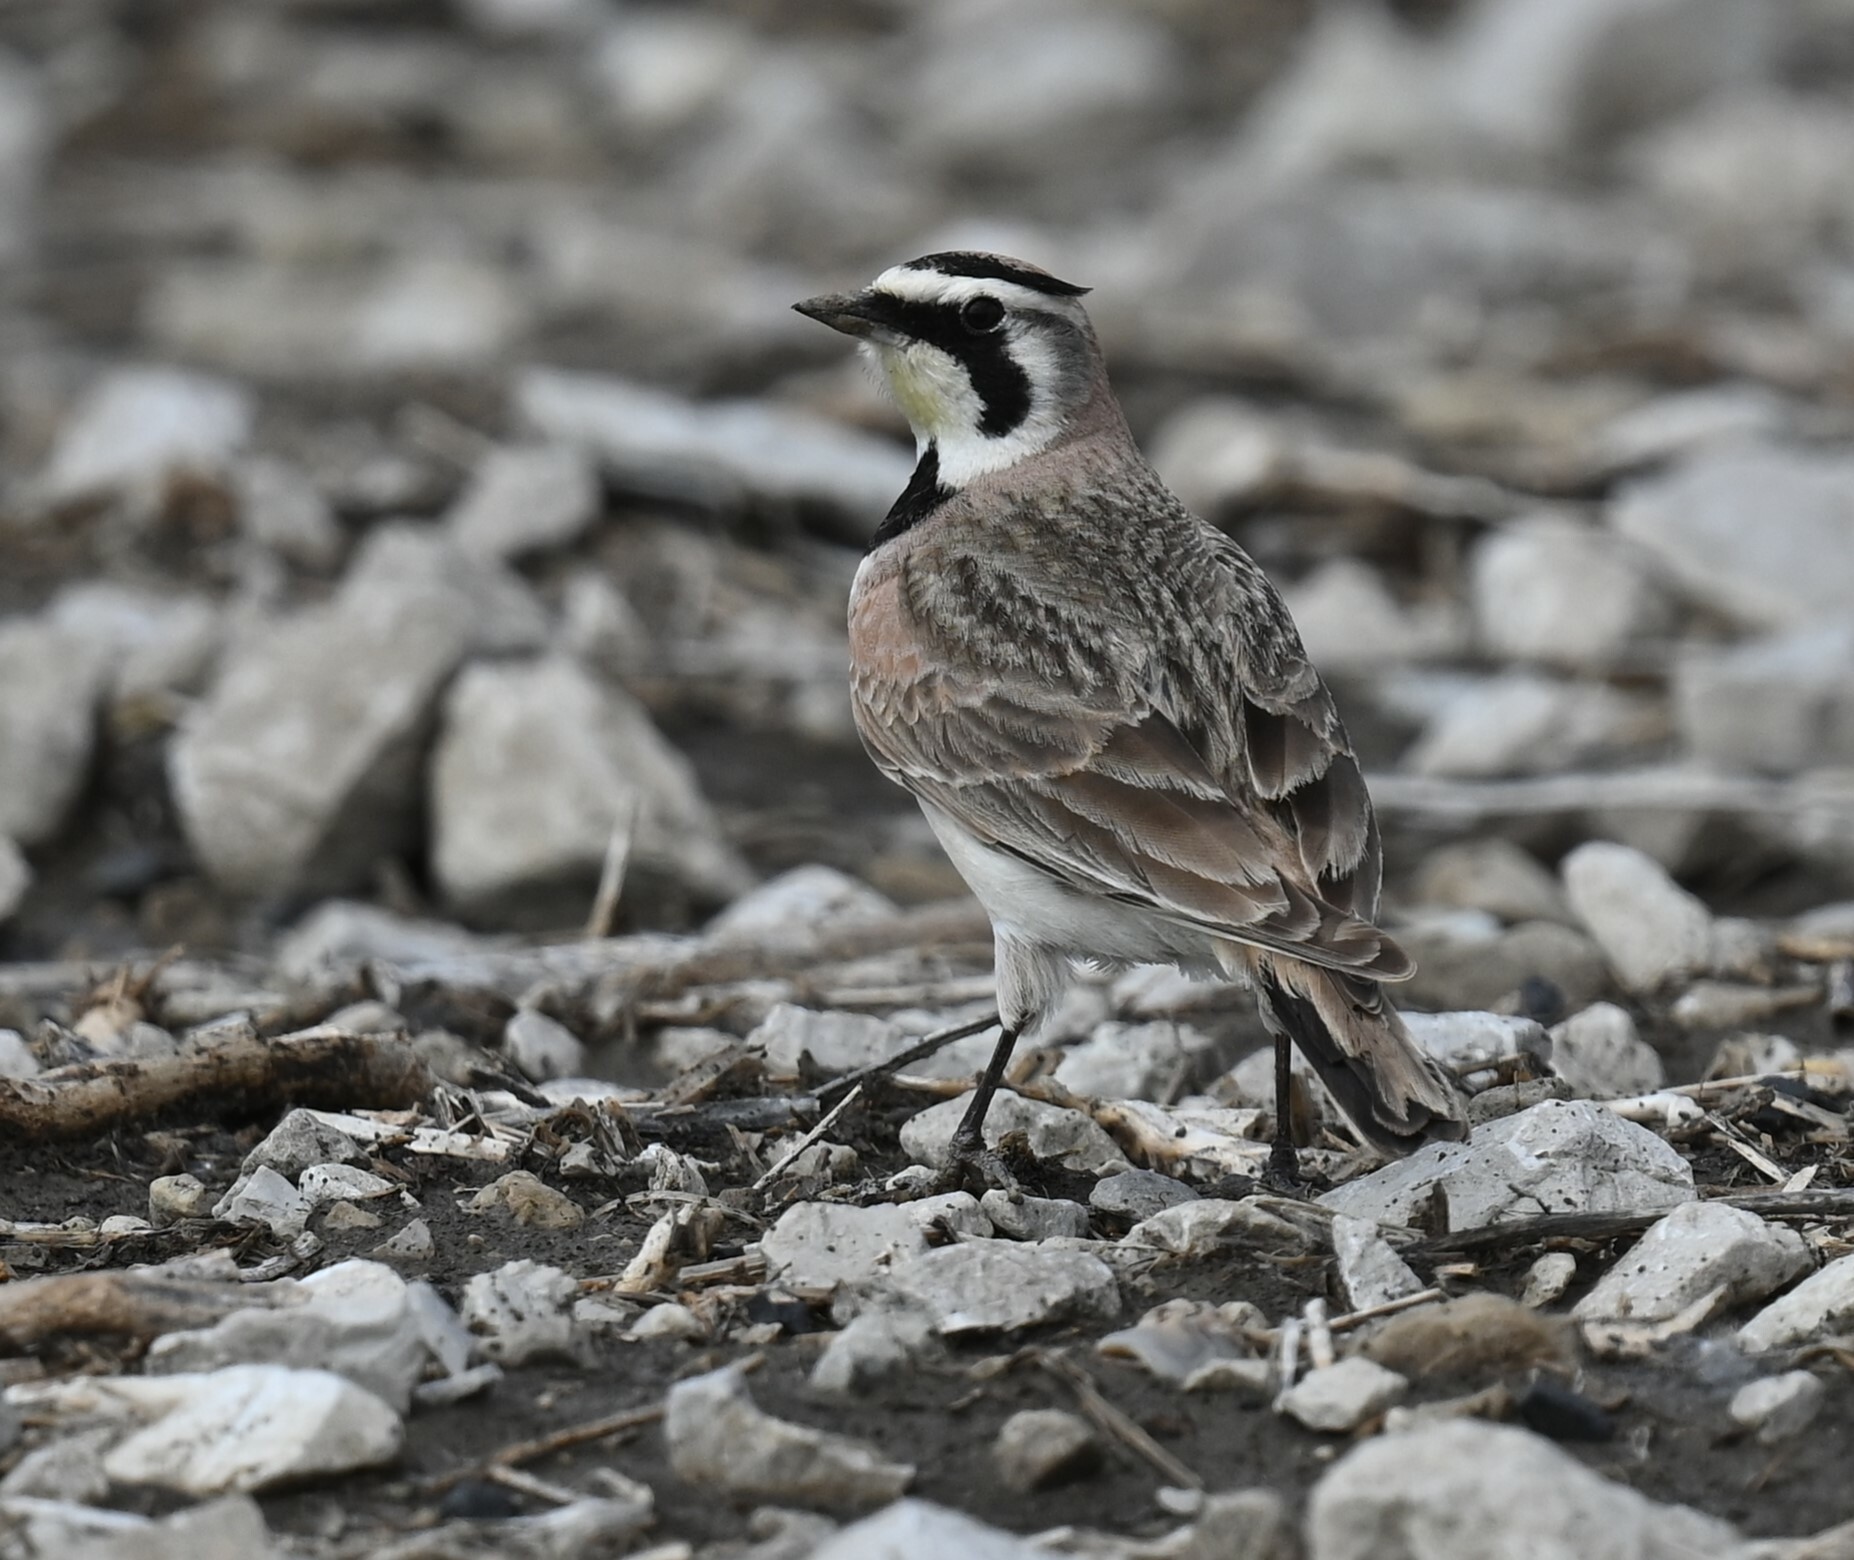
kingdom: Animalia
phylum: Chordata
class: Aves
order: Passeriformes
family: Alaudidae
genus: Eremophila
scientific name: Eremophila alpestris
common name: Horned lark
